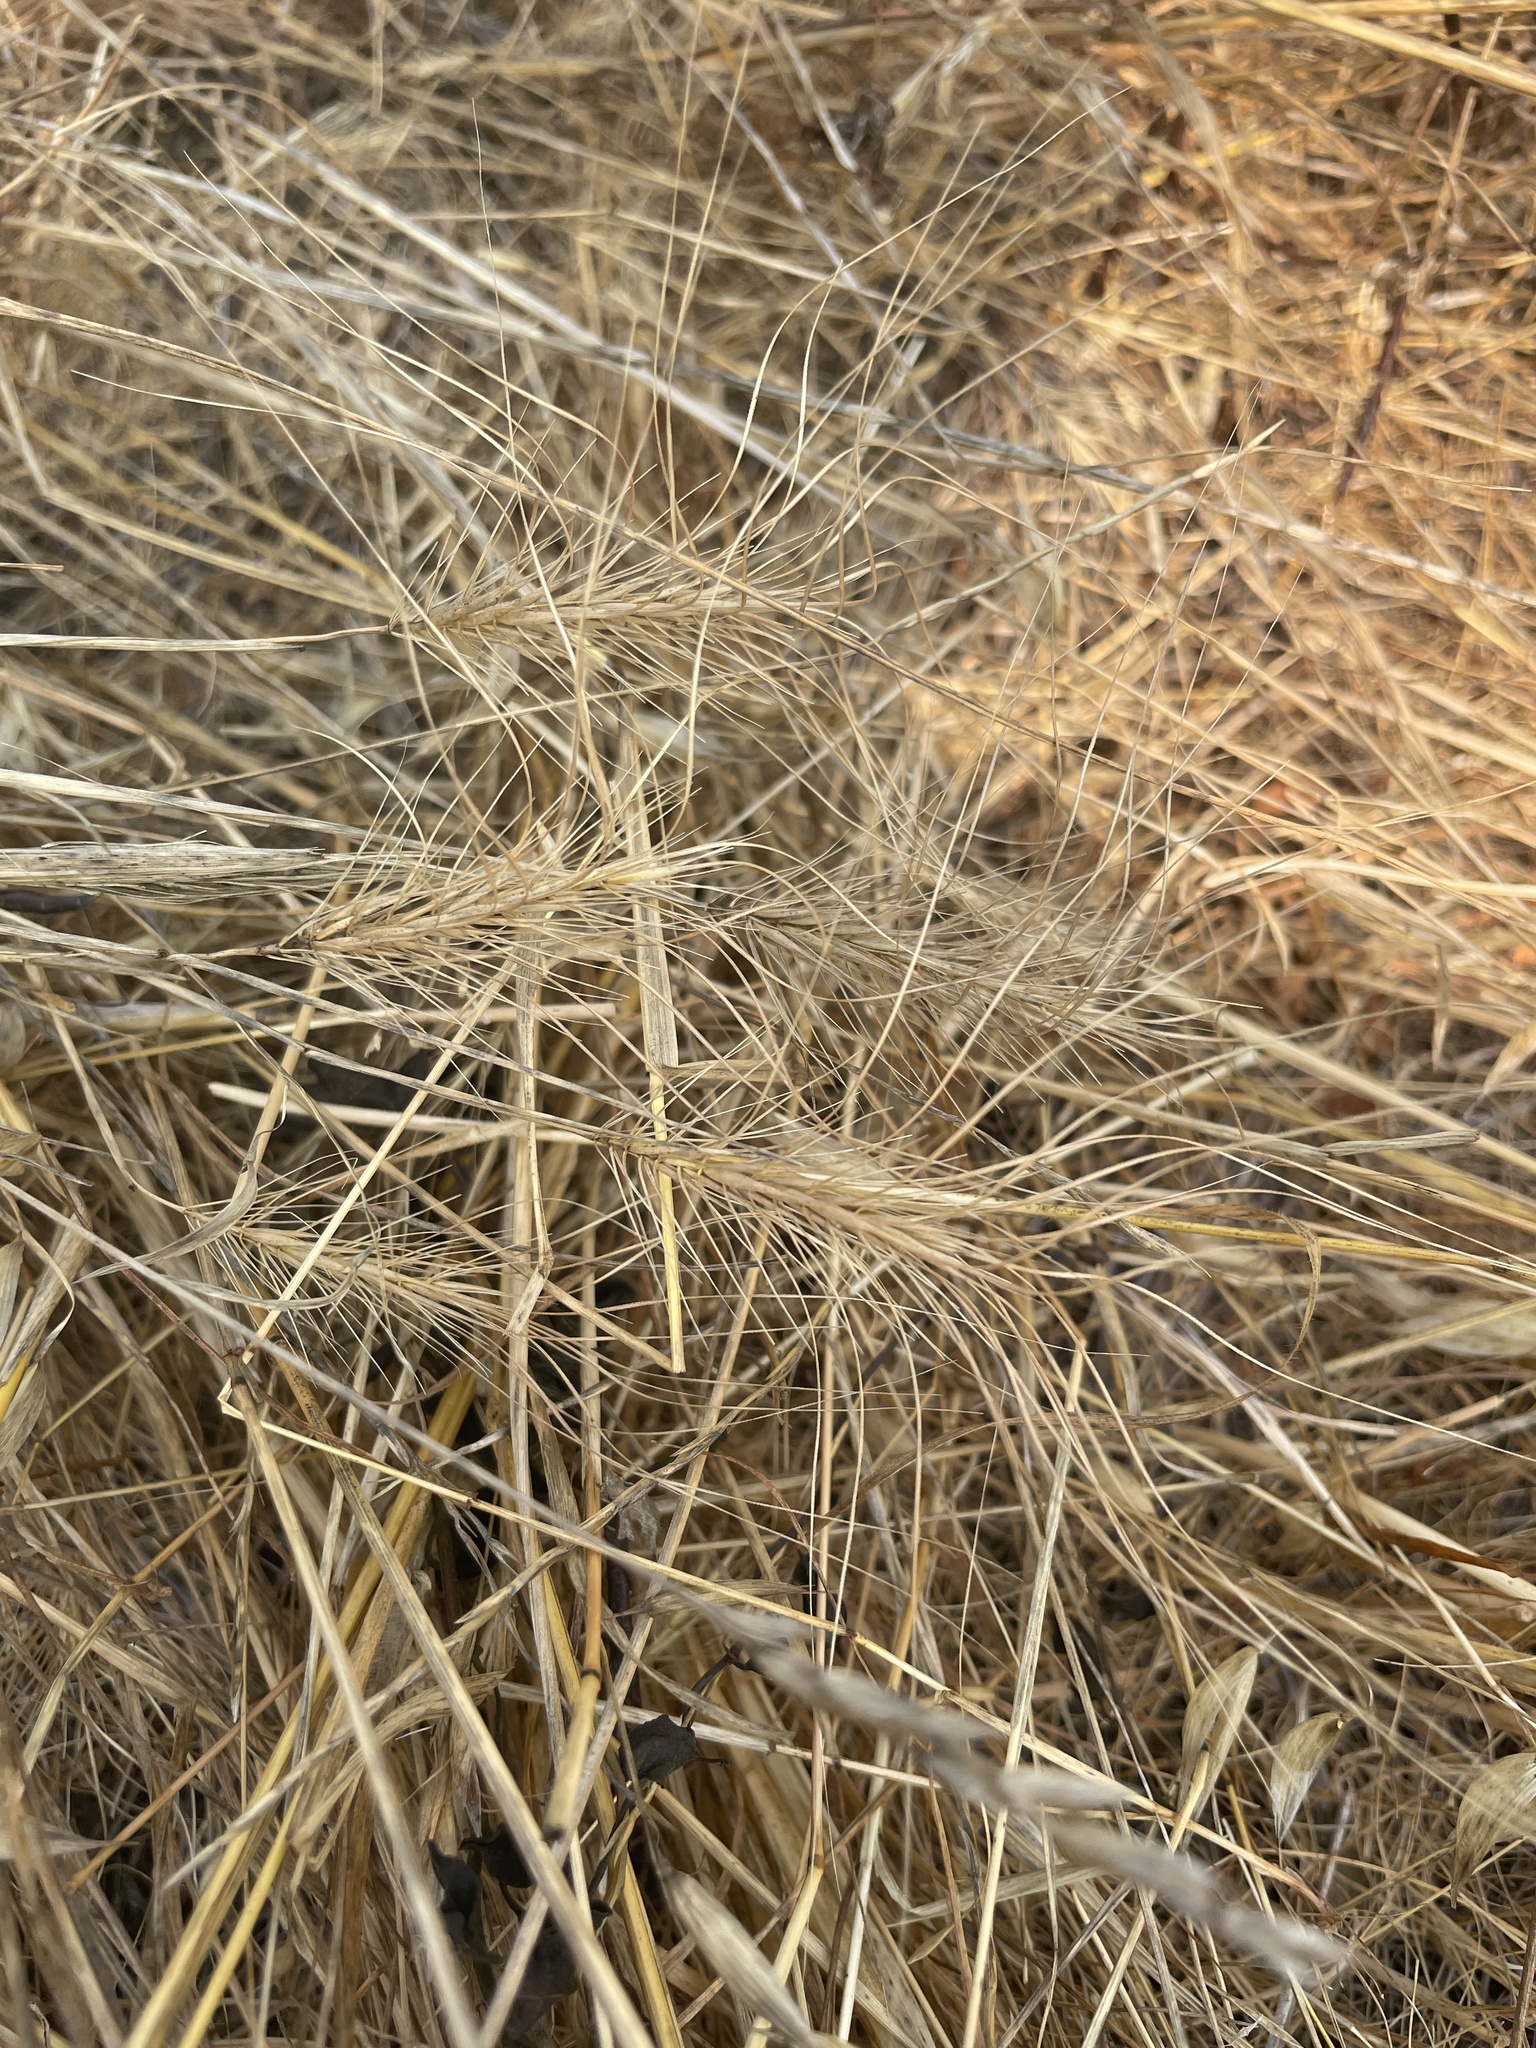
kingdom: Plantae
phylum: Tracheophyta
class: Liliopsida
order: Poales
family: Poaceae
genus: Taeniatherum
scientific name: Taeniatherum caput-medusae
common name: Medusahead
